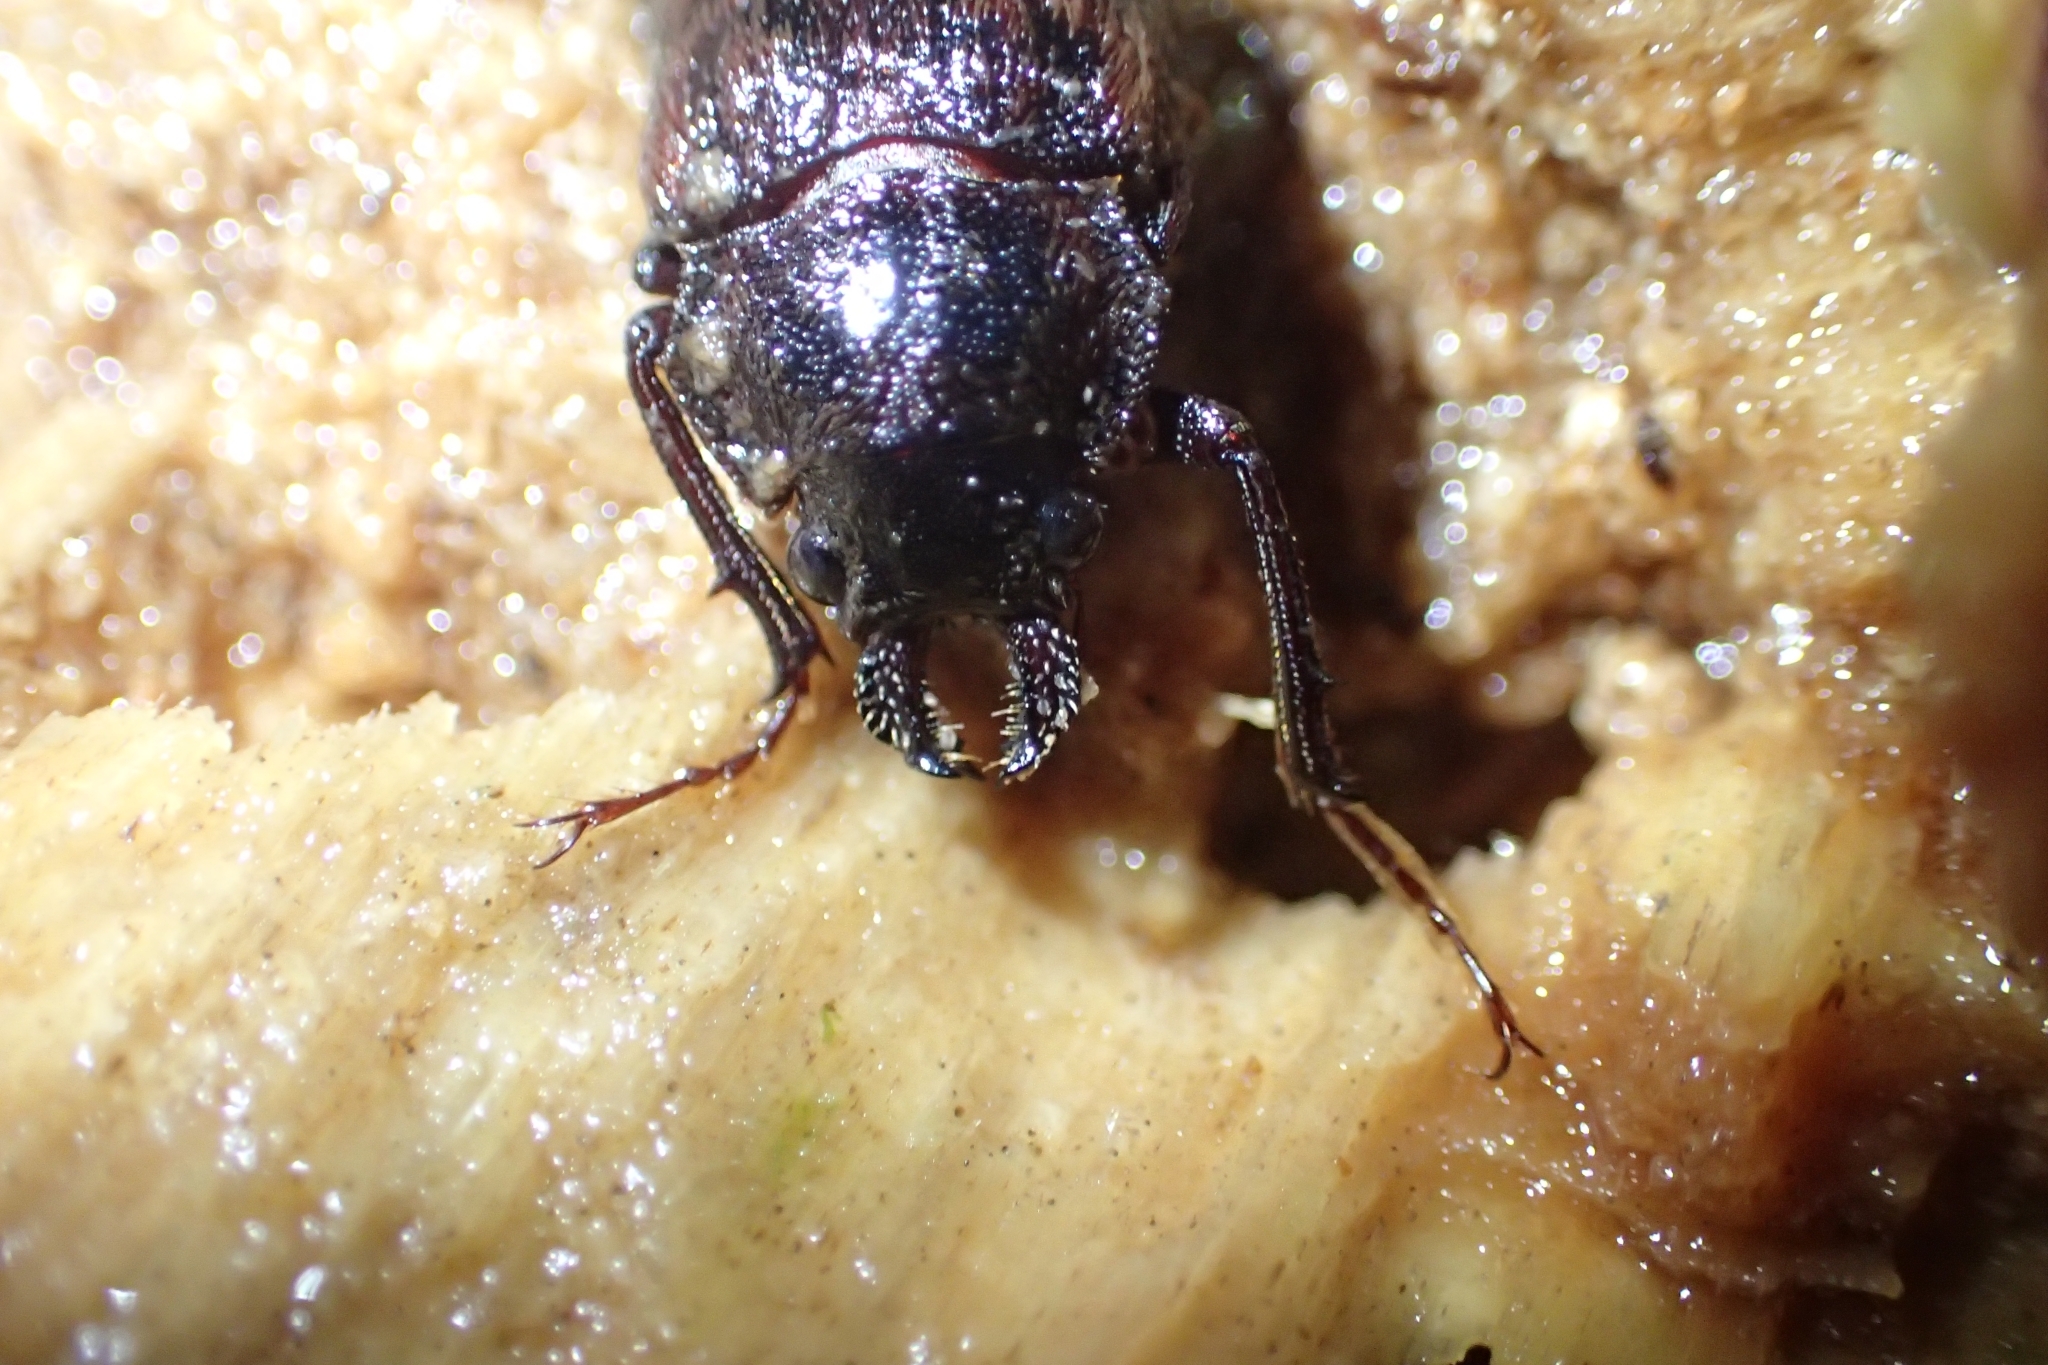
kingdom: Animalia
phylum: Arthropoda
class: Insecta
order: Coleoptera
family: Lucanidae
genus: Mitophyllus
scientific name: Mitophyllus falcatus
